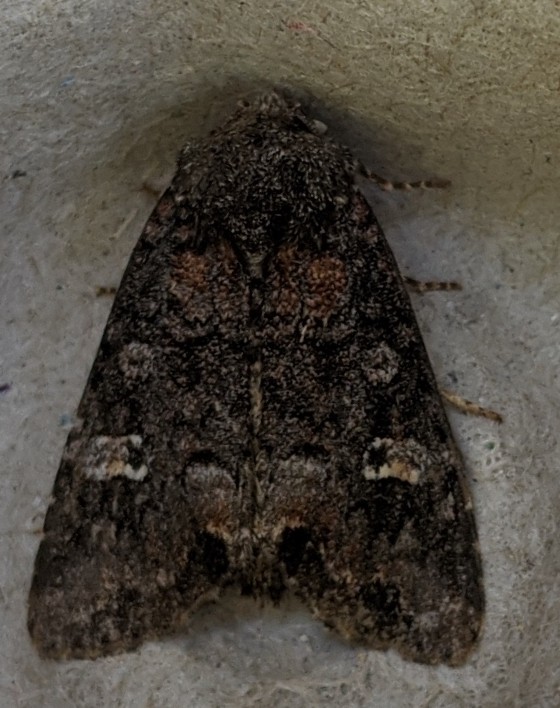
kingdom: Animalia
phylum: Arthropoda
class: Insecta
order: Lepidoptera
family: Noctuidae
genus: Spiramater
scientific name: Spiramater lutra
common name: Otter spiramater moth
